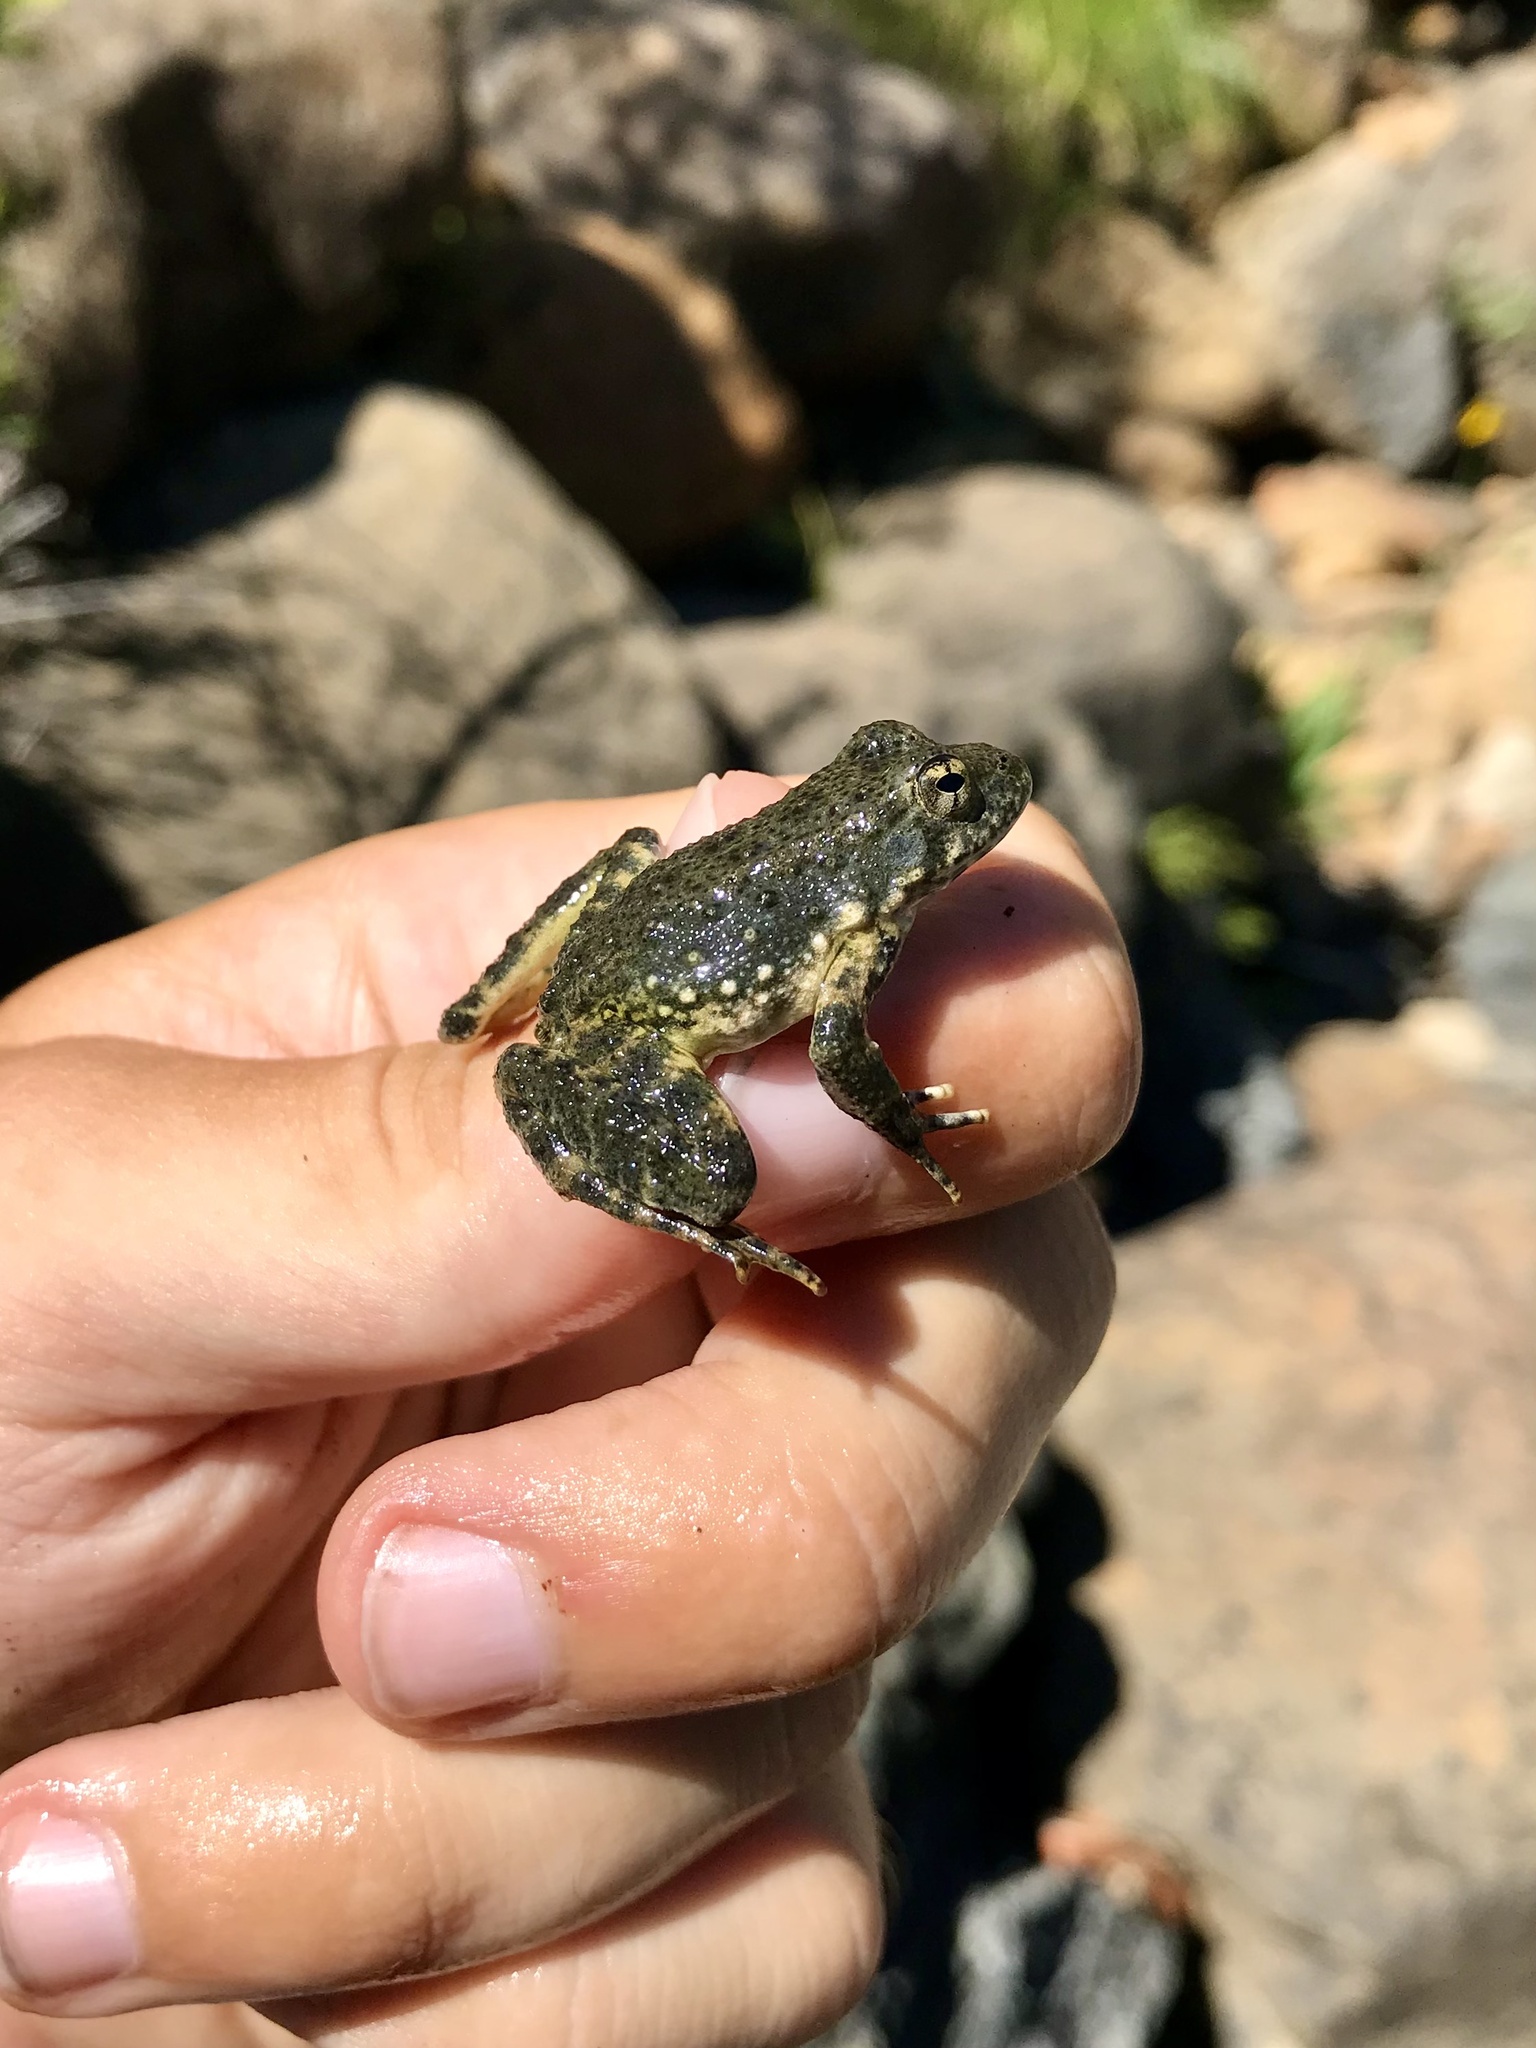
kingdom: Animalia
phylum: Chordata
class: Amphibia
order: Anura
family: Ranidae
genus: Rana
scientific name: Rana boylii
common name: Foothill yellow-legged frog
